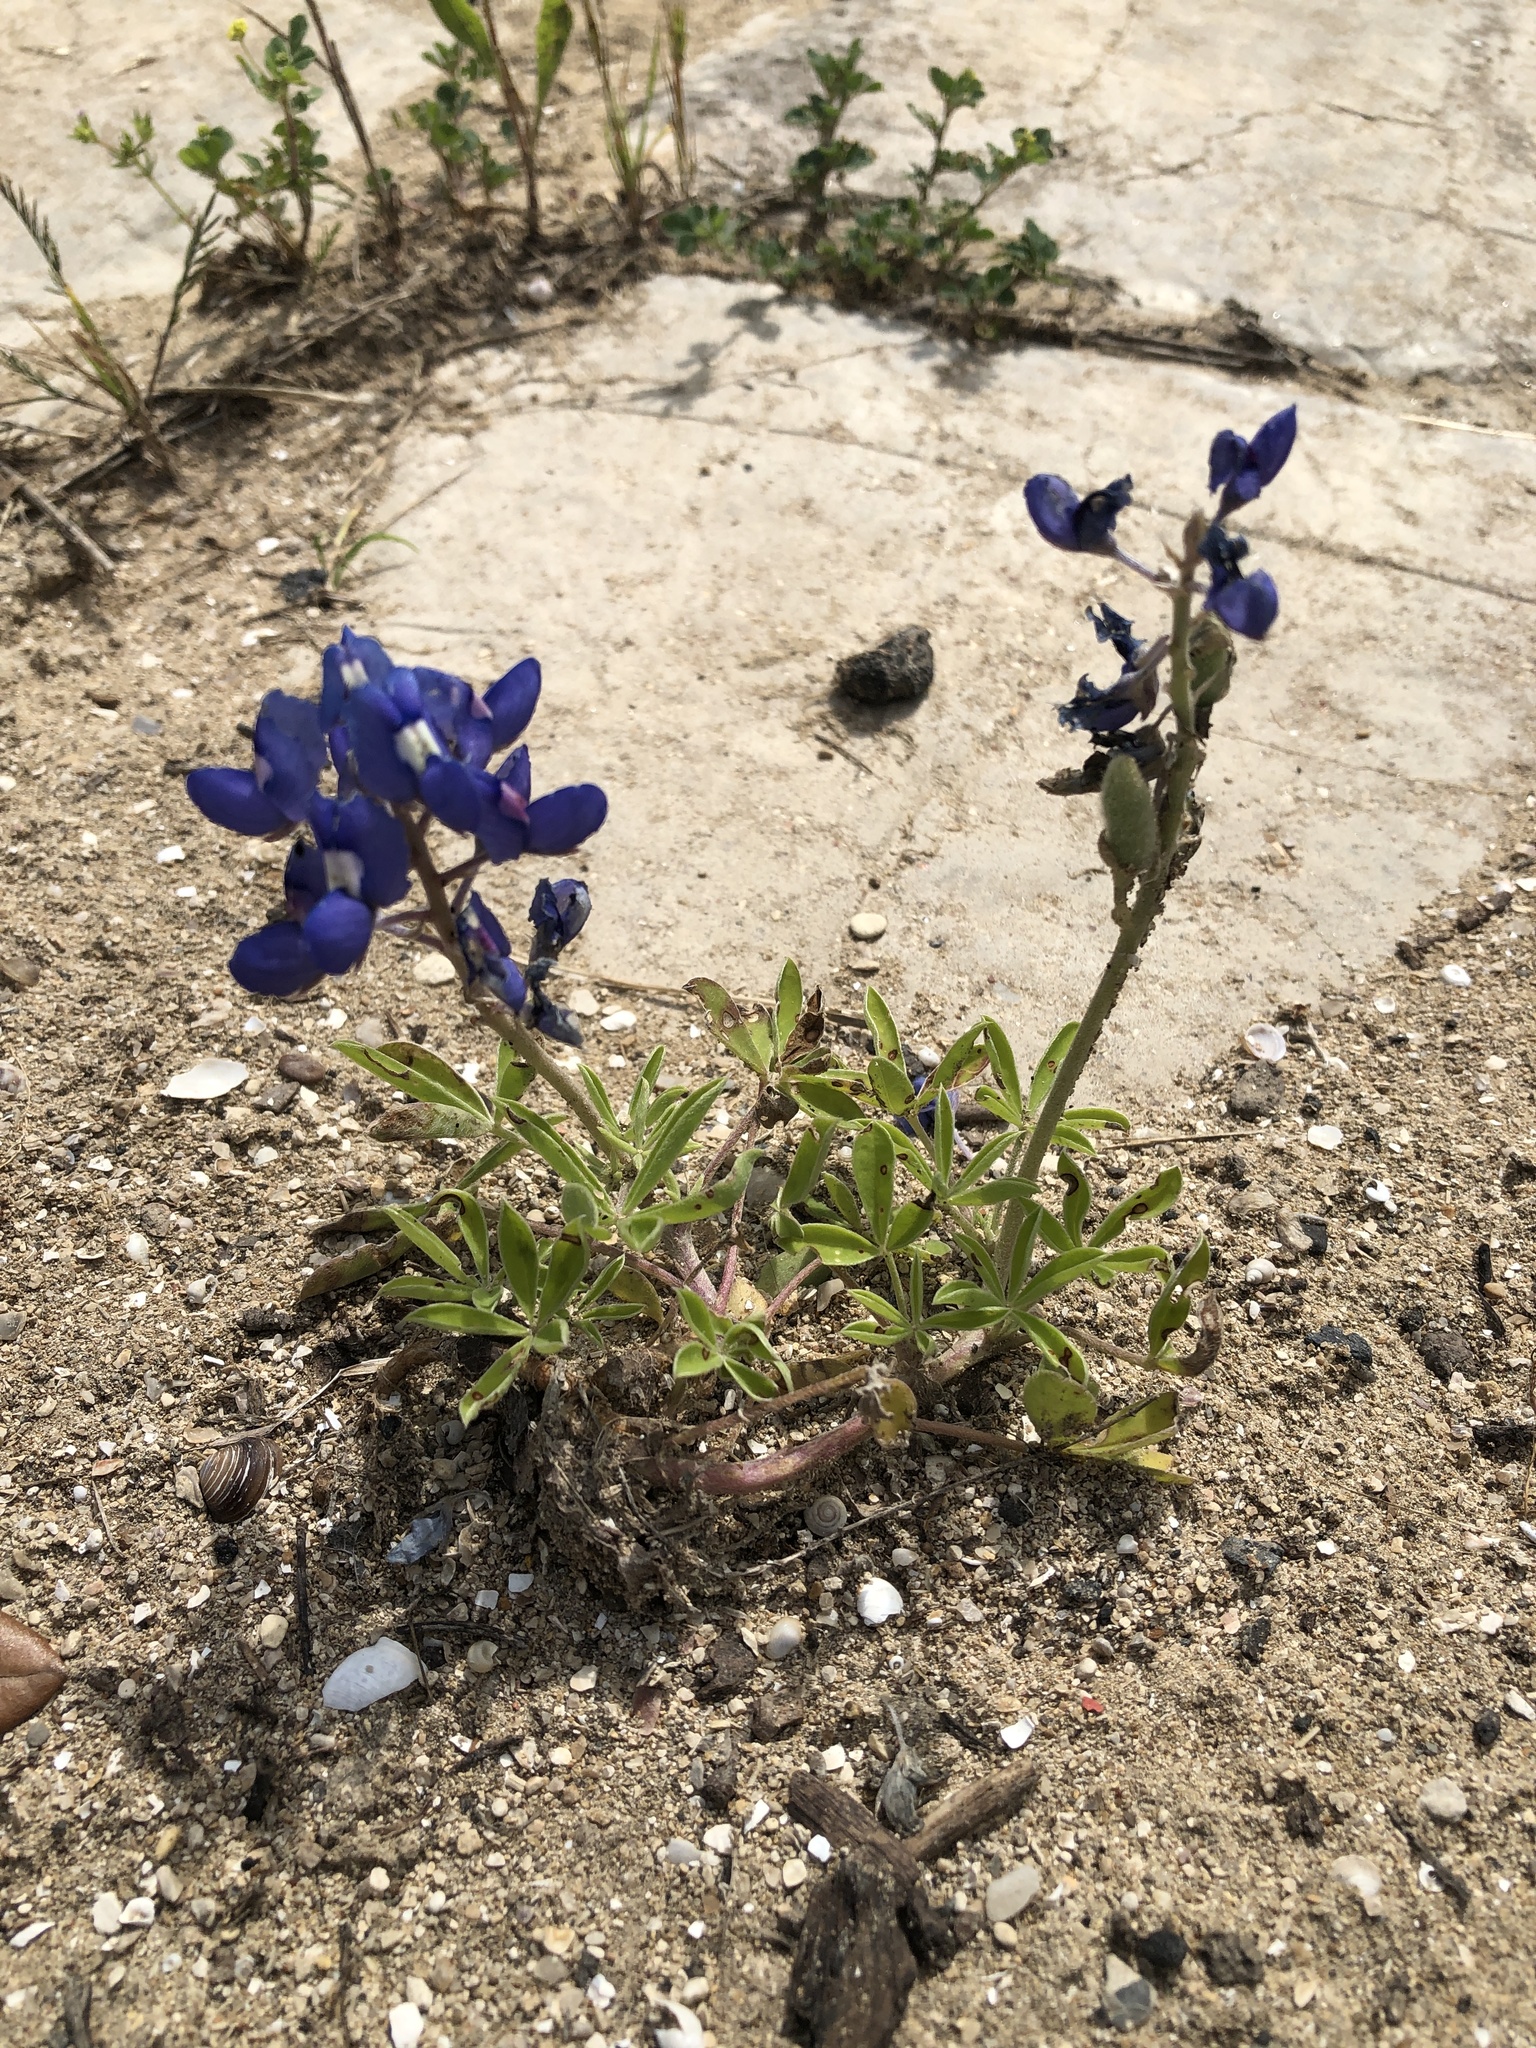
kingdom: Plantae
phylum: Tracheophyta
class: Magnoliopsida
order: Fabales
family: Fabaceae
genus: Lupinus
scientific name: Lupinus texensis
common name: Texas bluebonnet
